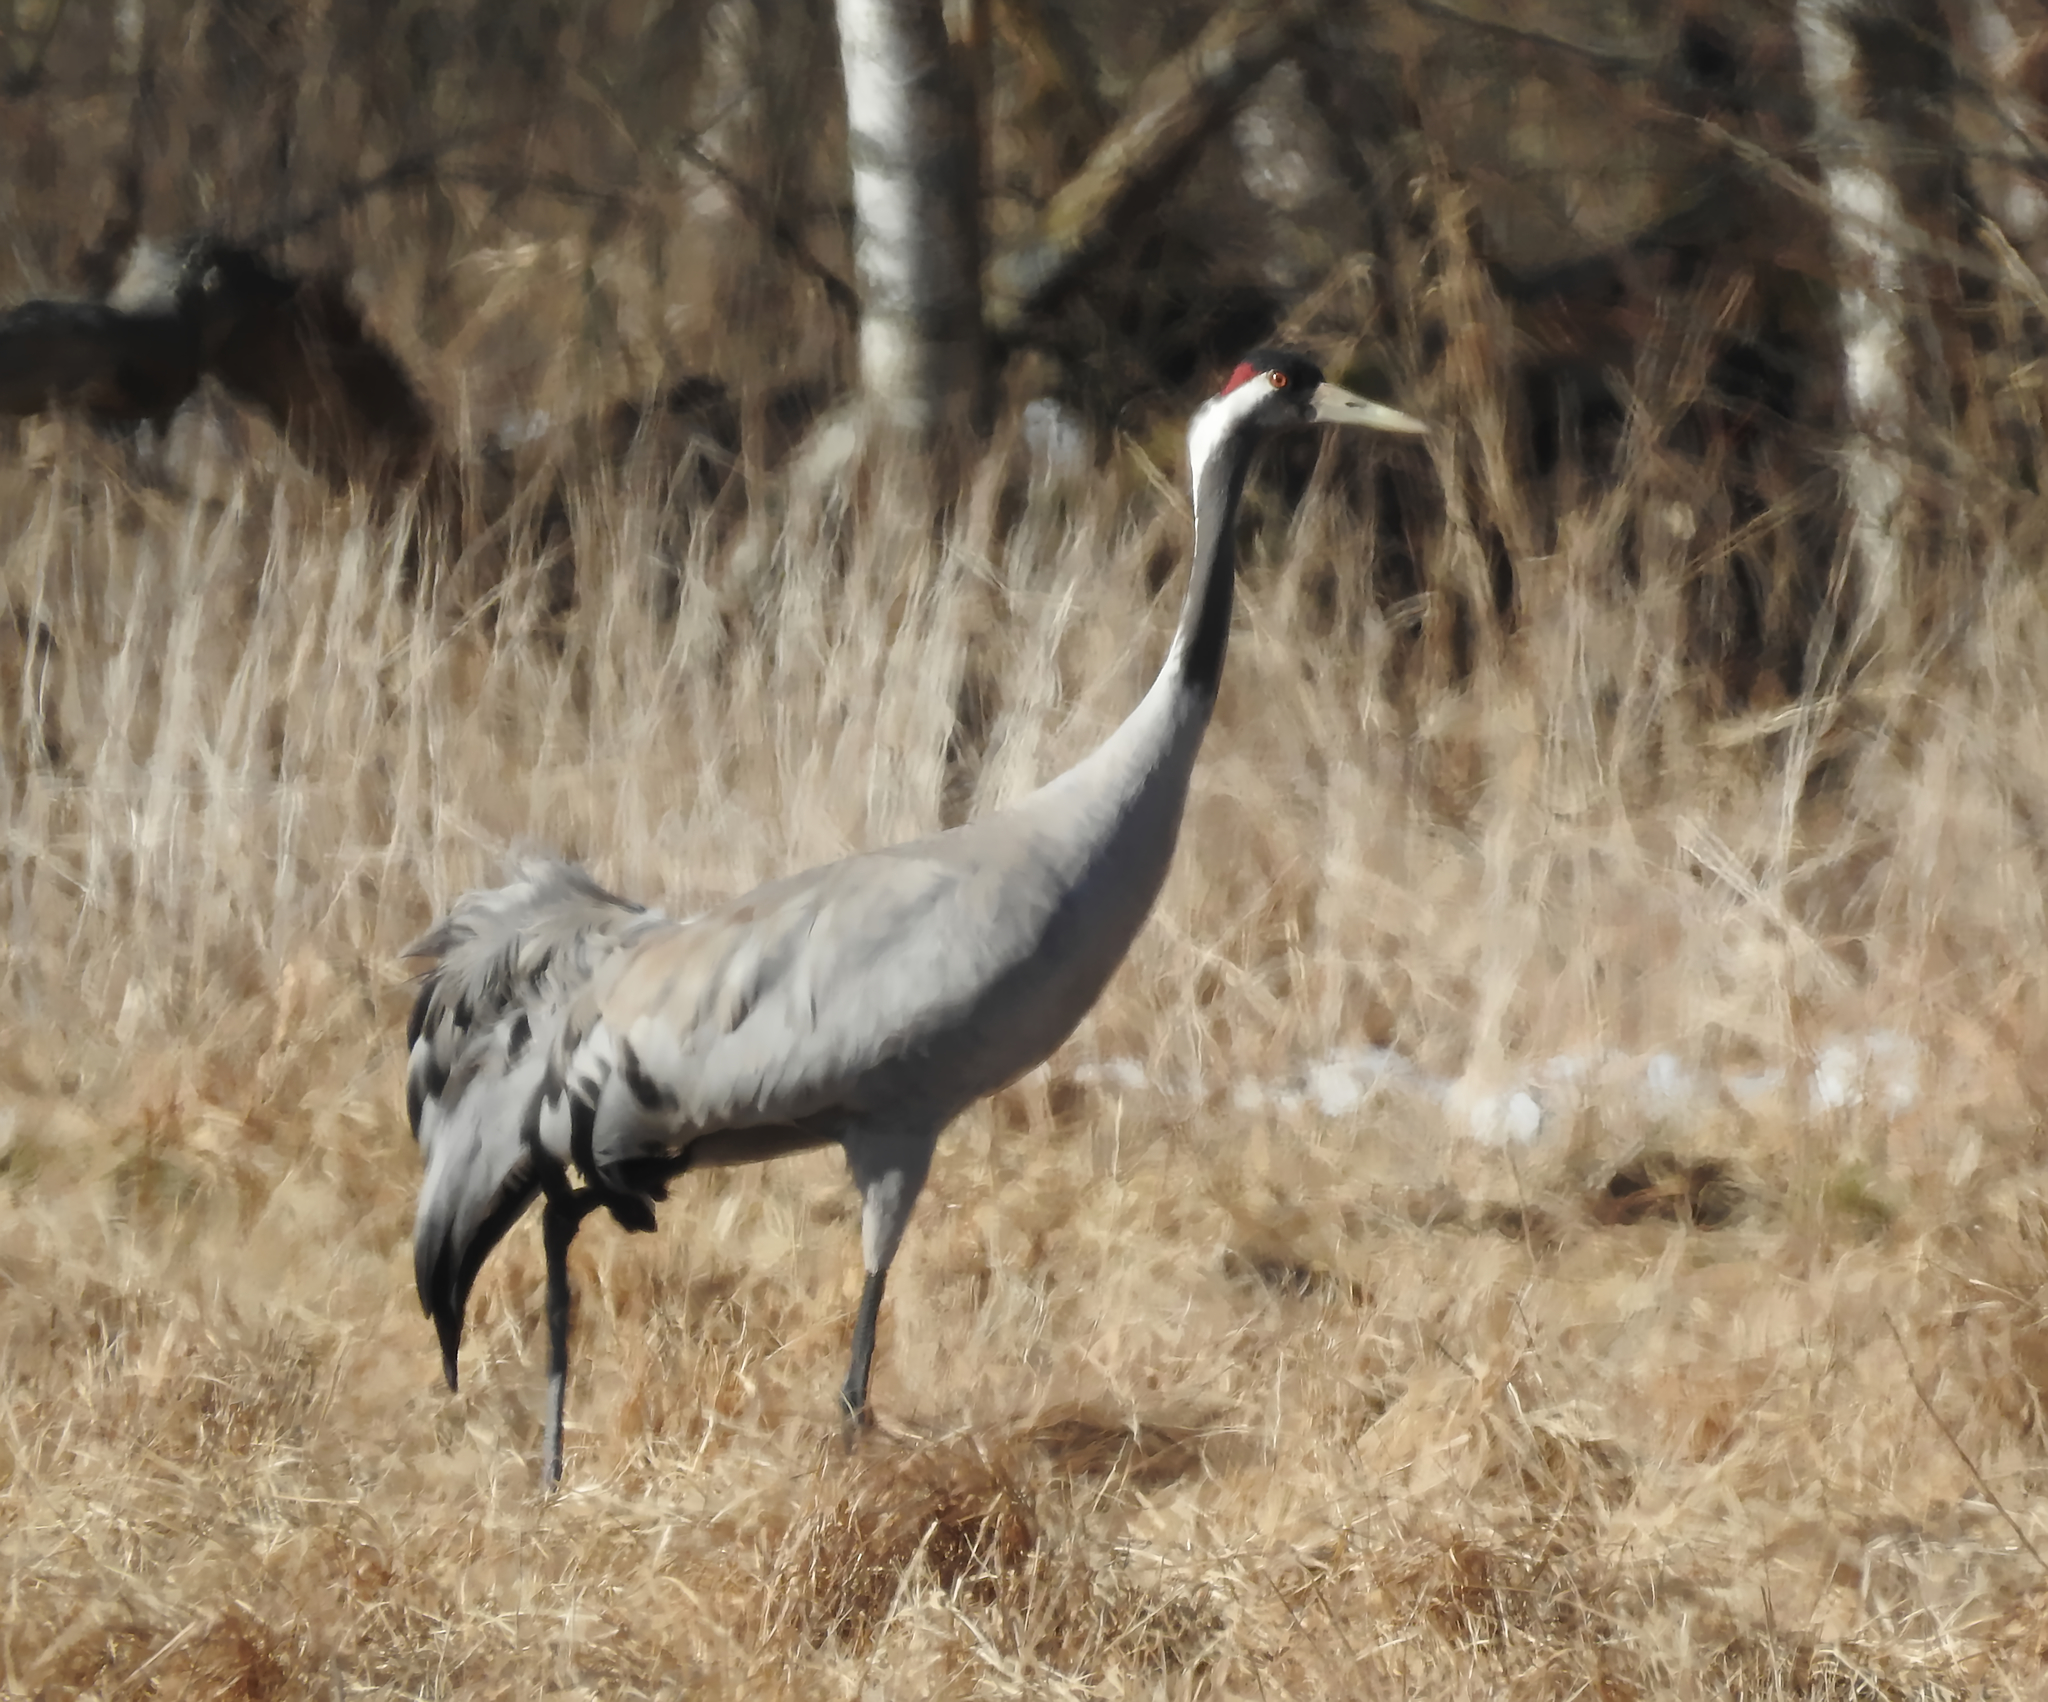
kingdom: Animalia
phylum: Chordata
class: Aves
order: Gruiformes
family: Gruidae
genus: Grus
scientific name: Grus grus
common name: Common crane
